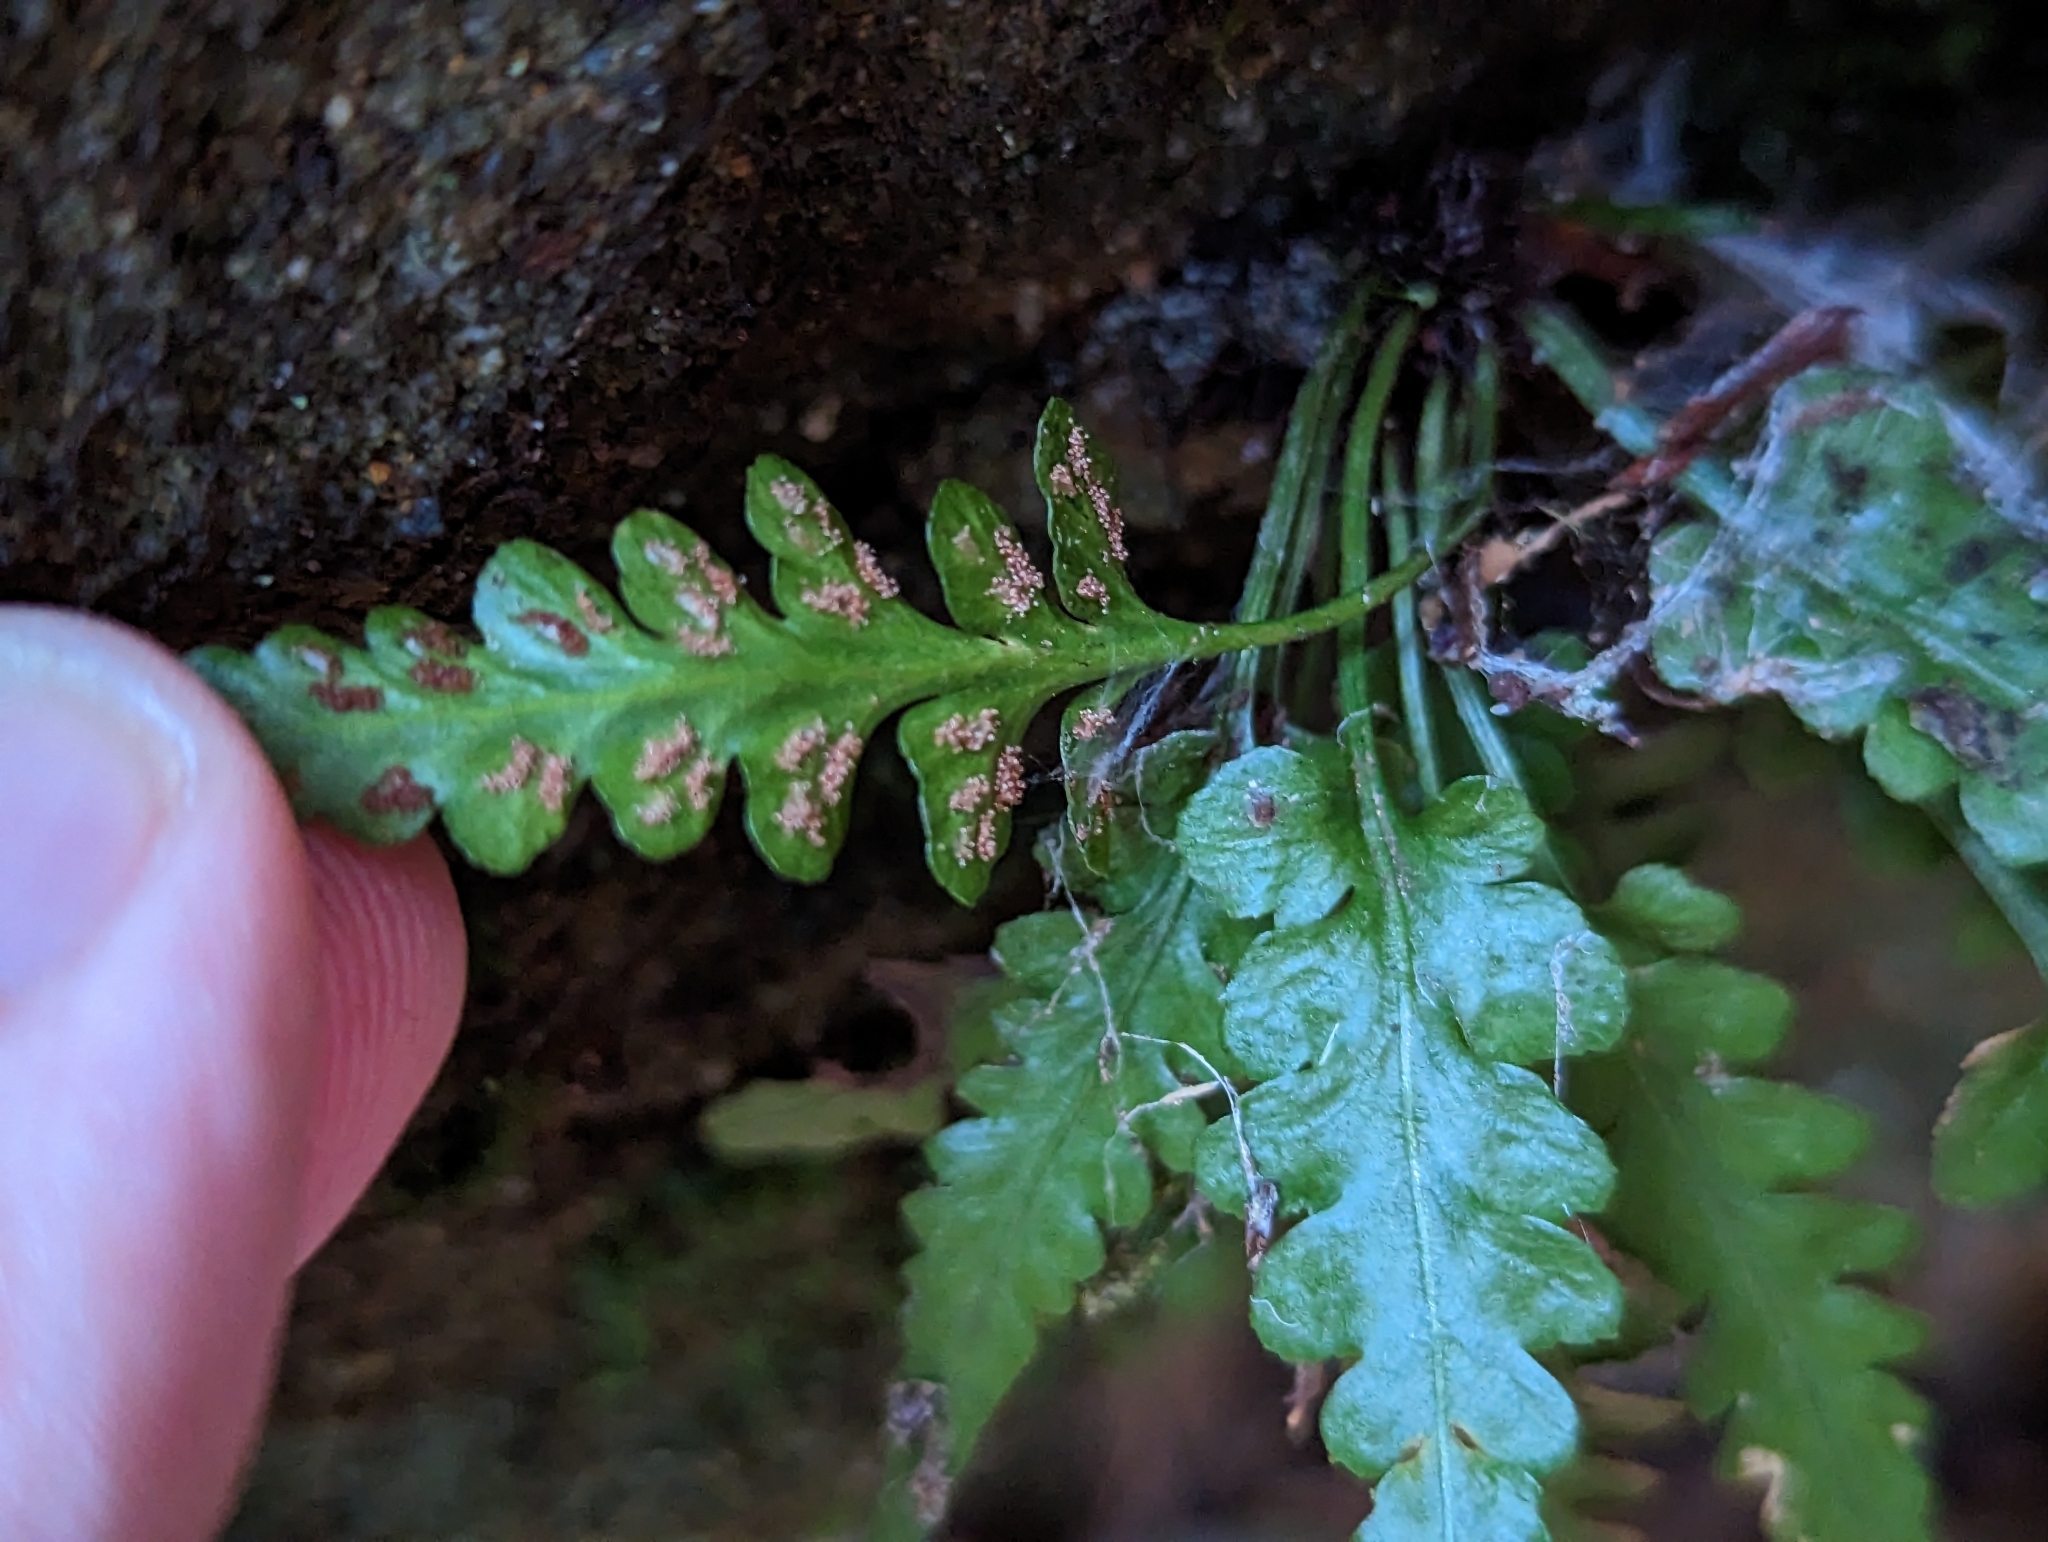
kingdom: Plantae
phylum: Tracheophyta
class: Polypodiopsida
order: Polypodiales
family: Aspleniaceae
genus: Asplenium
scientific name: Asplenium pinnatifidum
